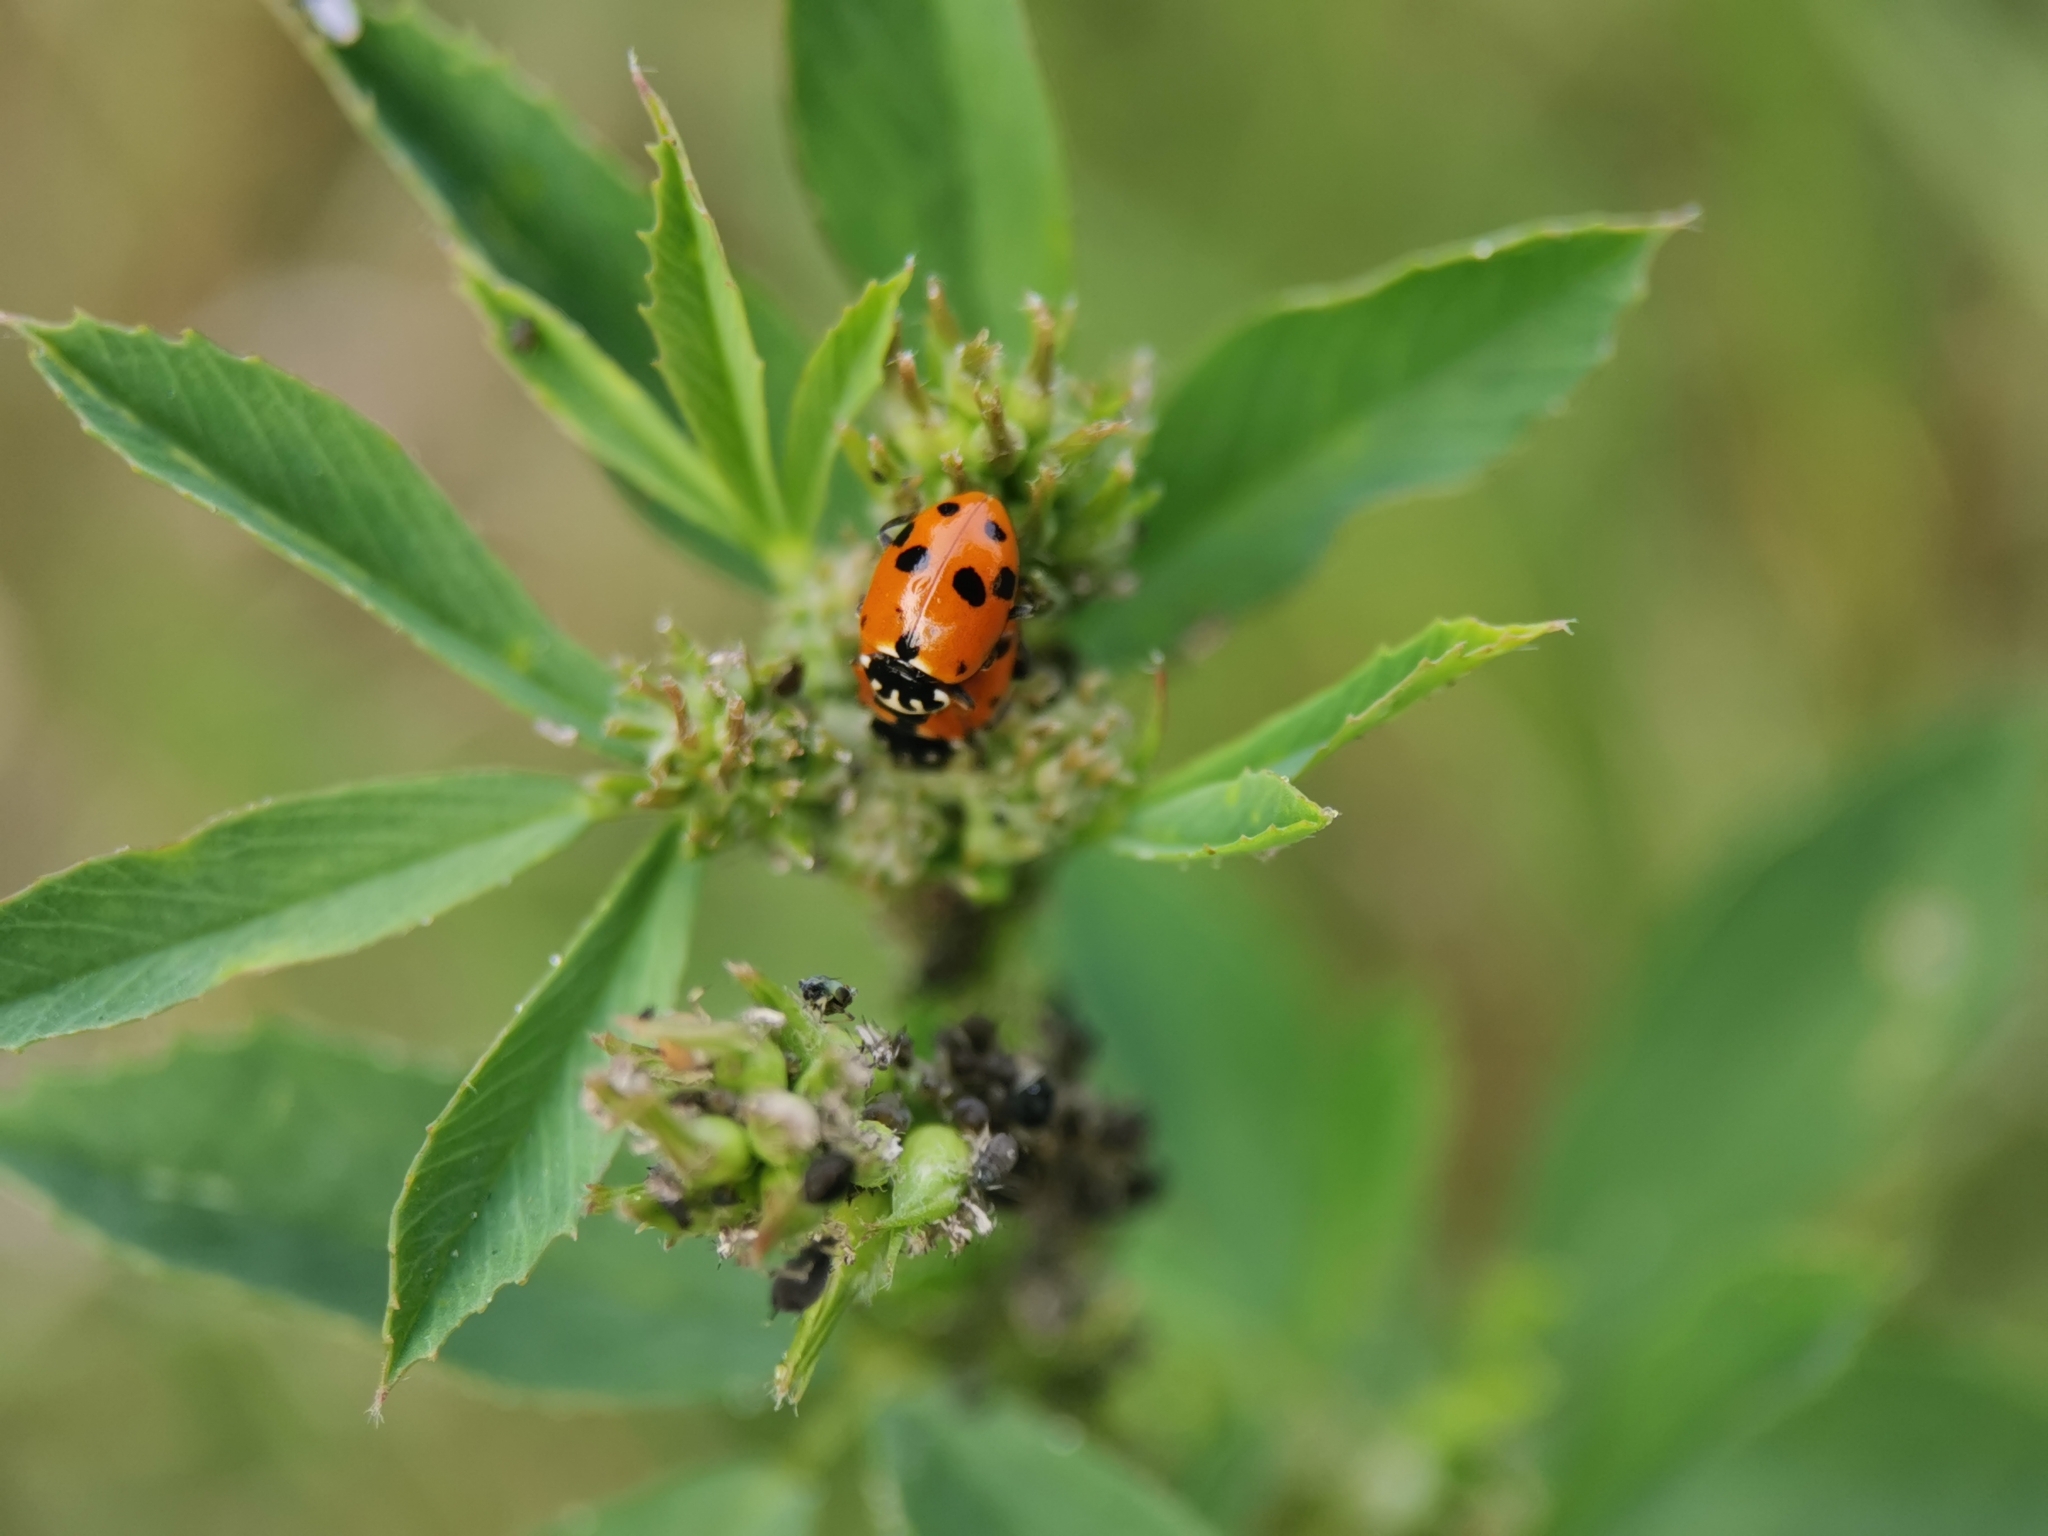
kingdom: Animalia
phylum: Arthropoda
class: Insecta
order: Coleoptera
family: Coccinellidae
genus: Hippodamia
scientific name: Hippodamia variegata
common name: Ladybird beetle
